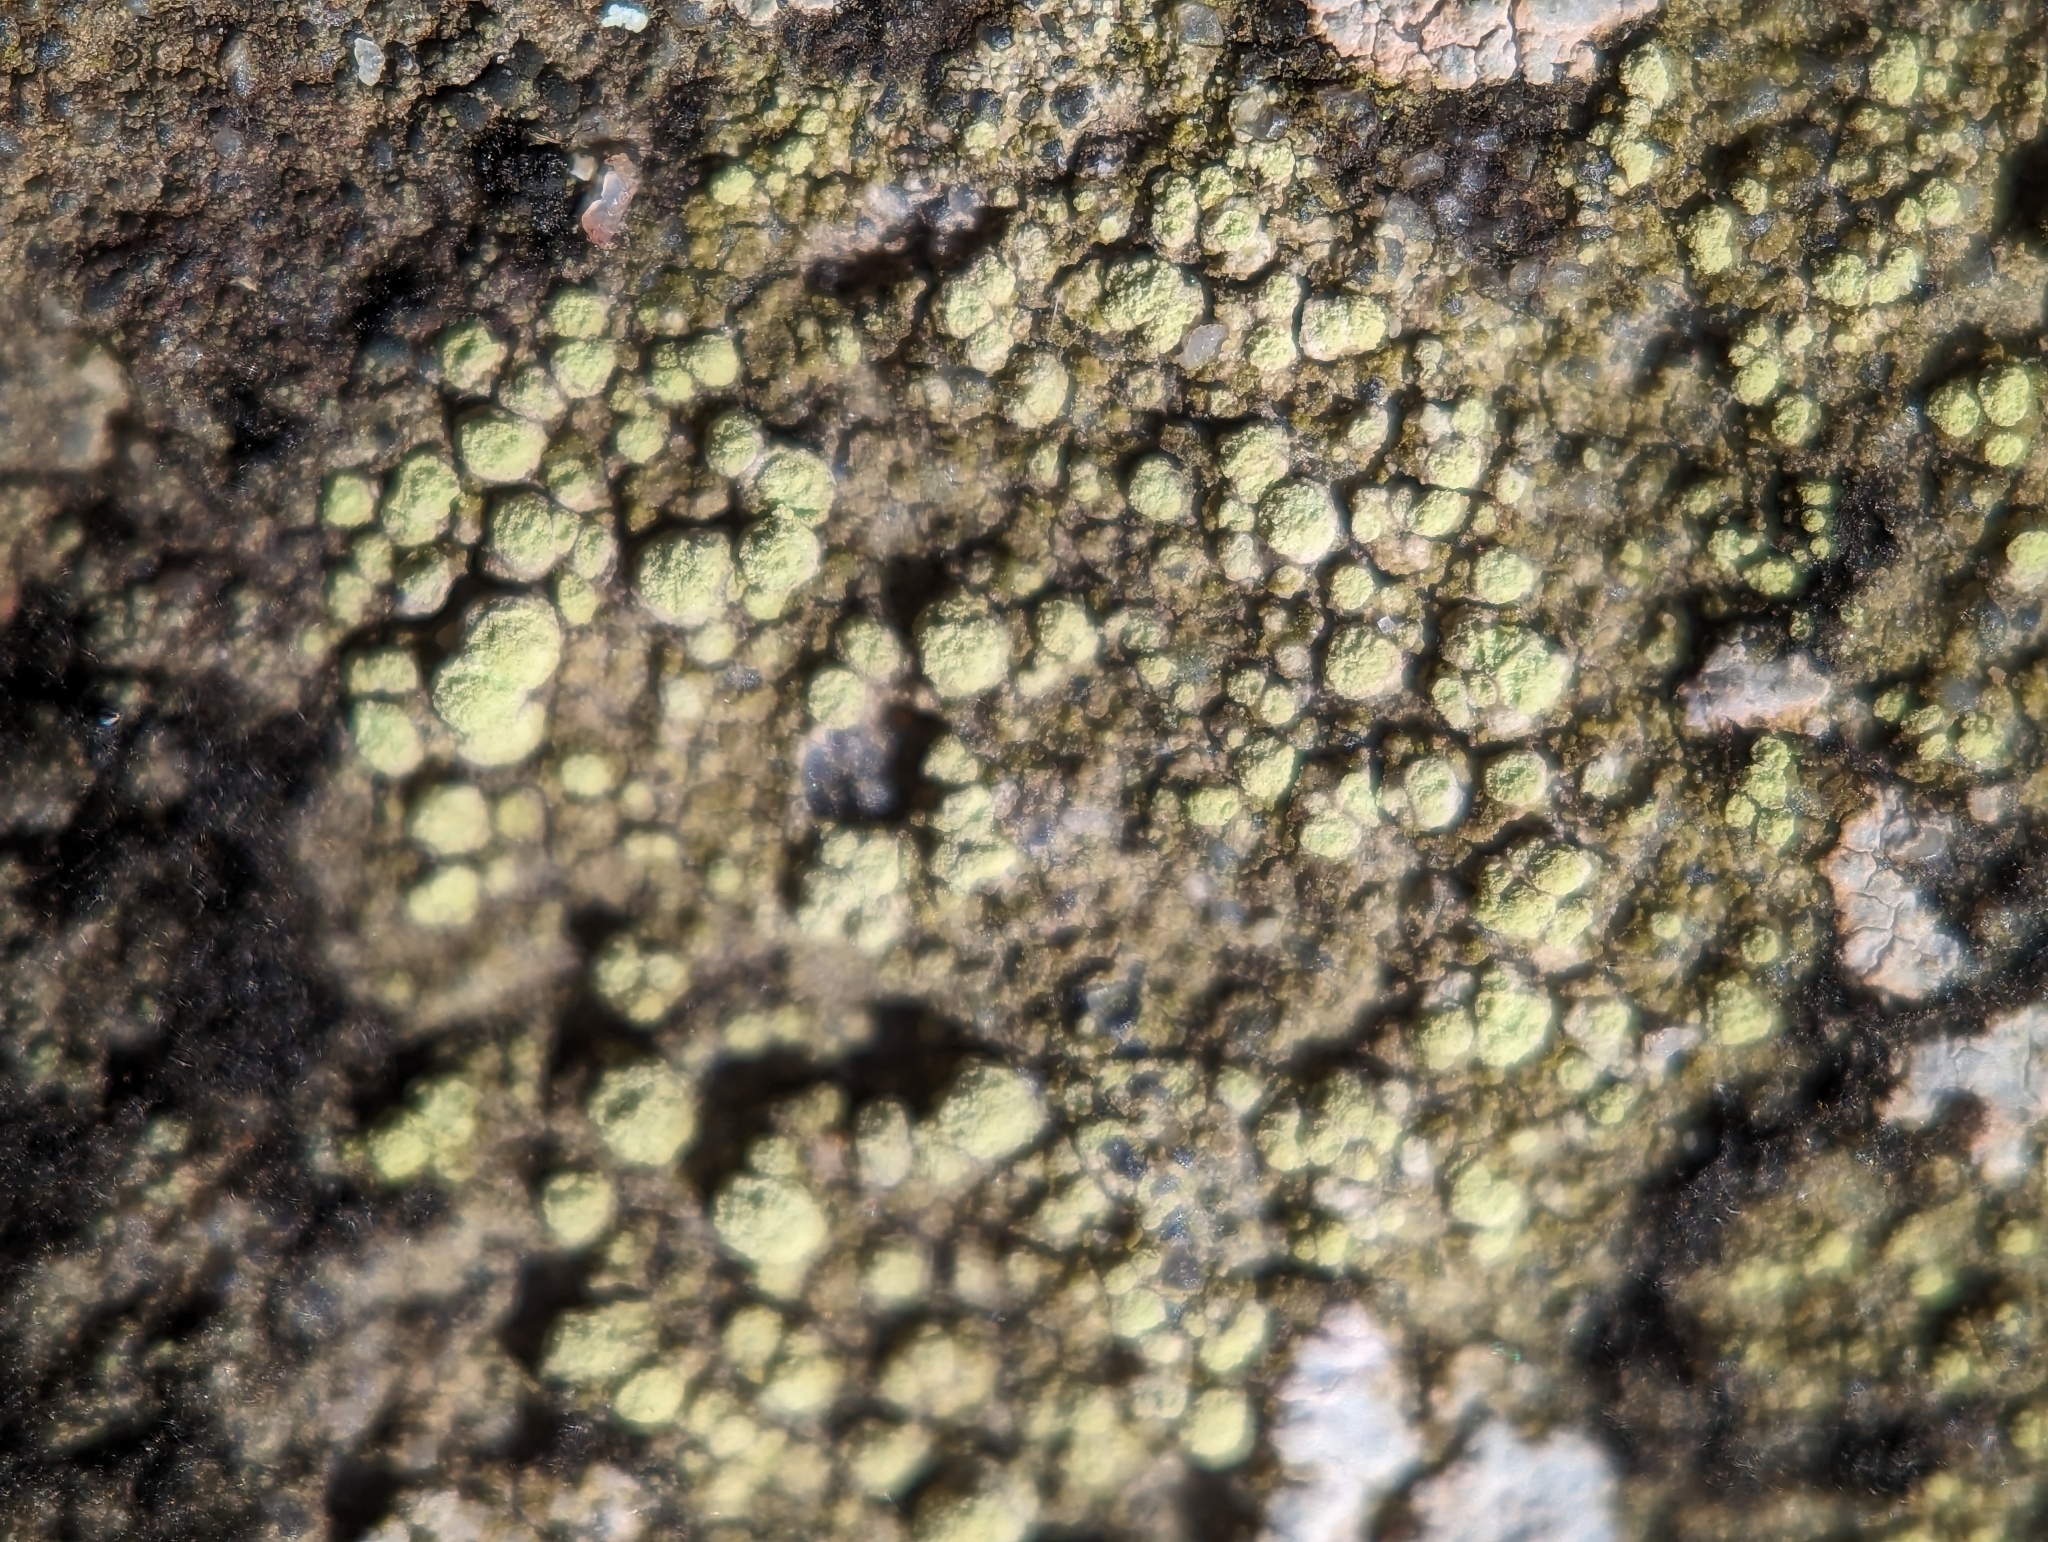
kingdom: Fungi
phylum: Ascomycota
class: Lecanoromycetes
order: Lecanorales
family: Ramalinaceae
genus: Biatora
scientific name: Biatora appalachensis
